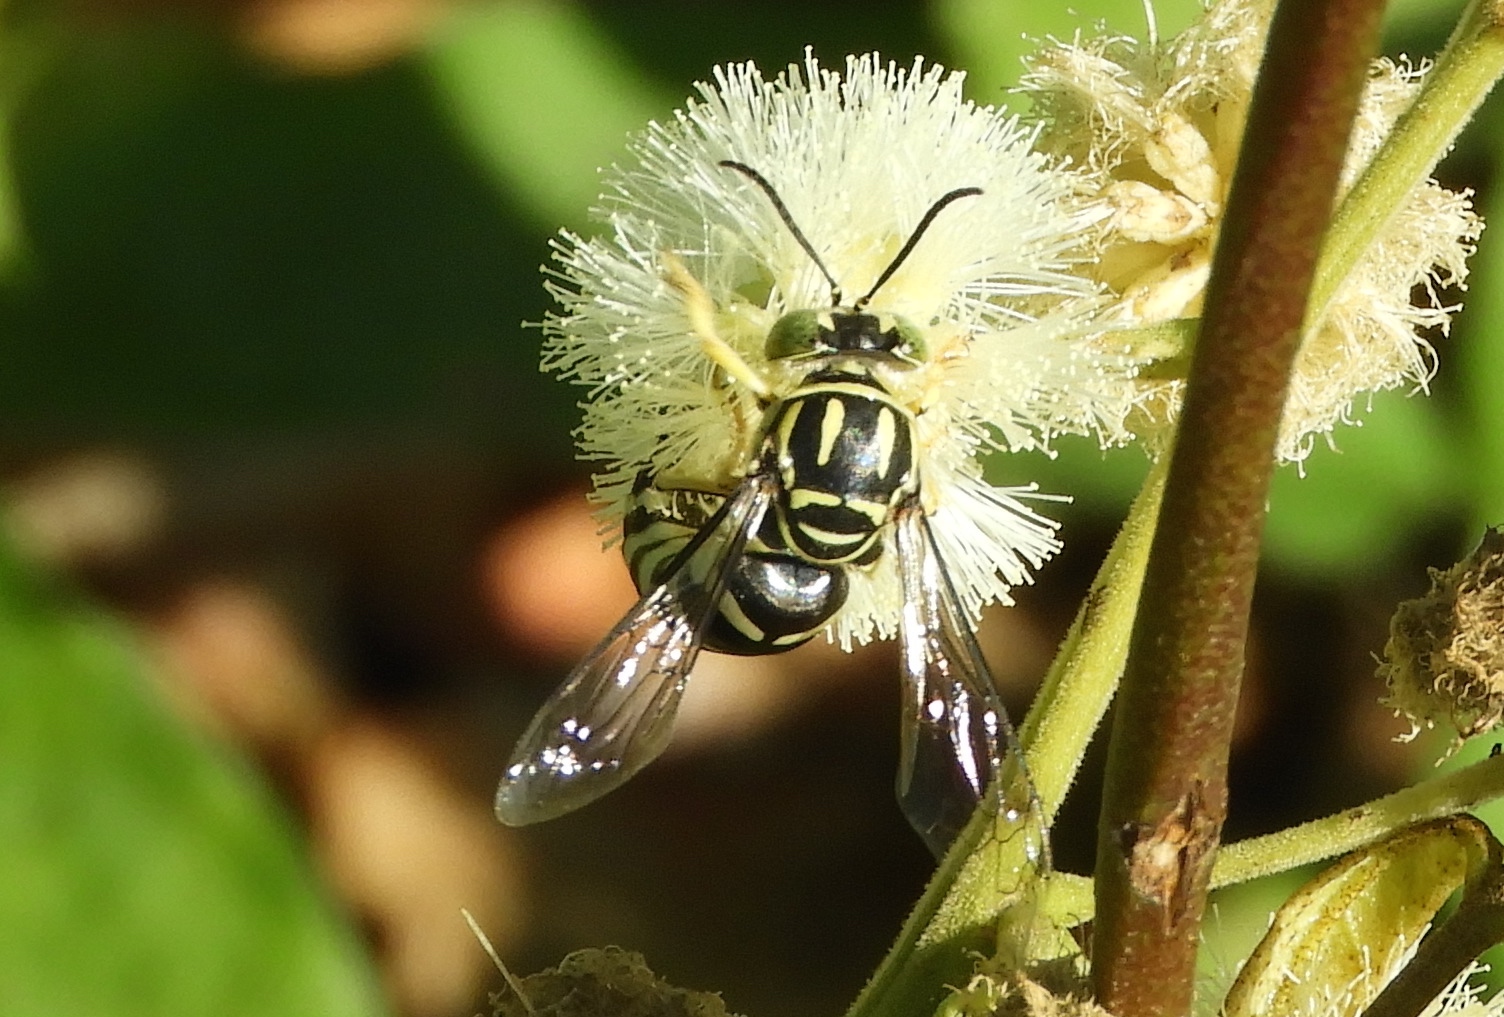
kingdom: Animalia
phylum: Arthropoda
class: Insecta
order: Hymenoptera
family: Crabronidae
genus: Bicyrtes
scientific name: Bicyrtes variegatus
